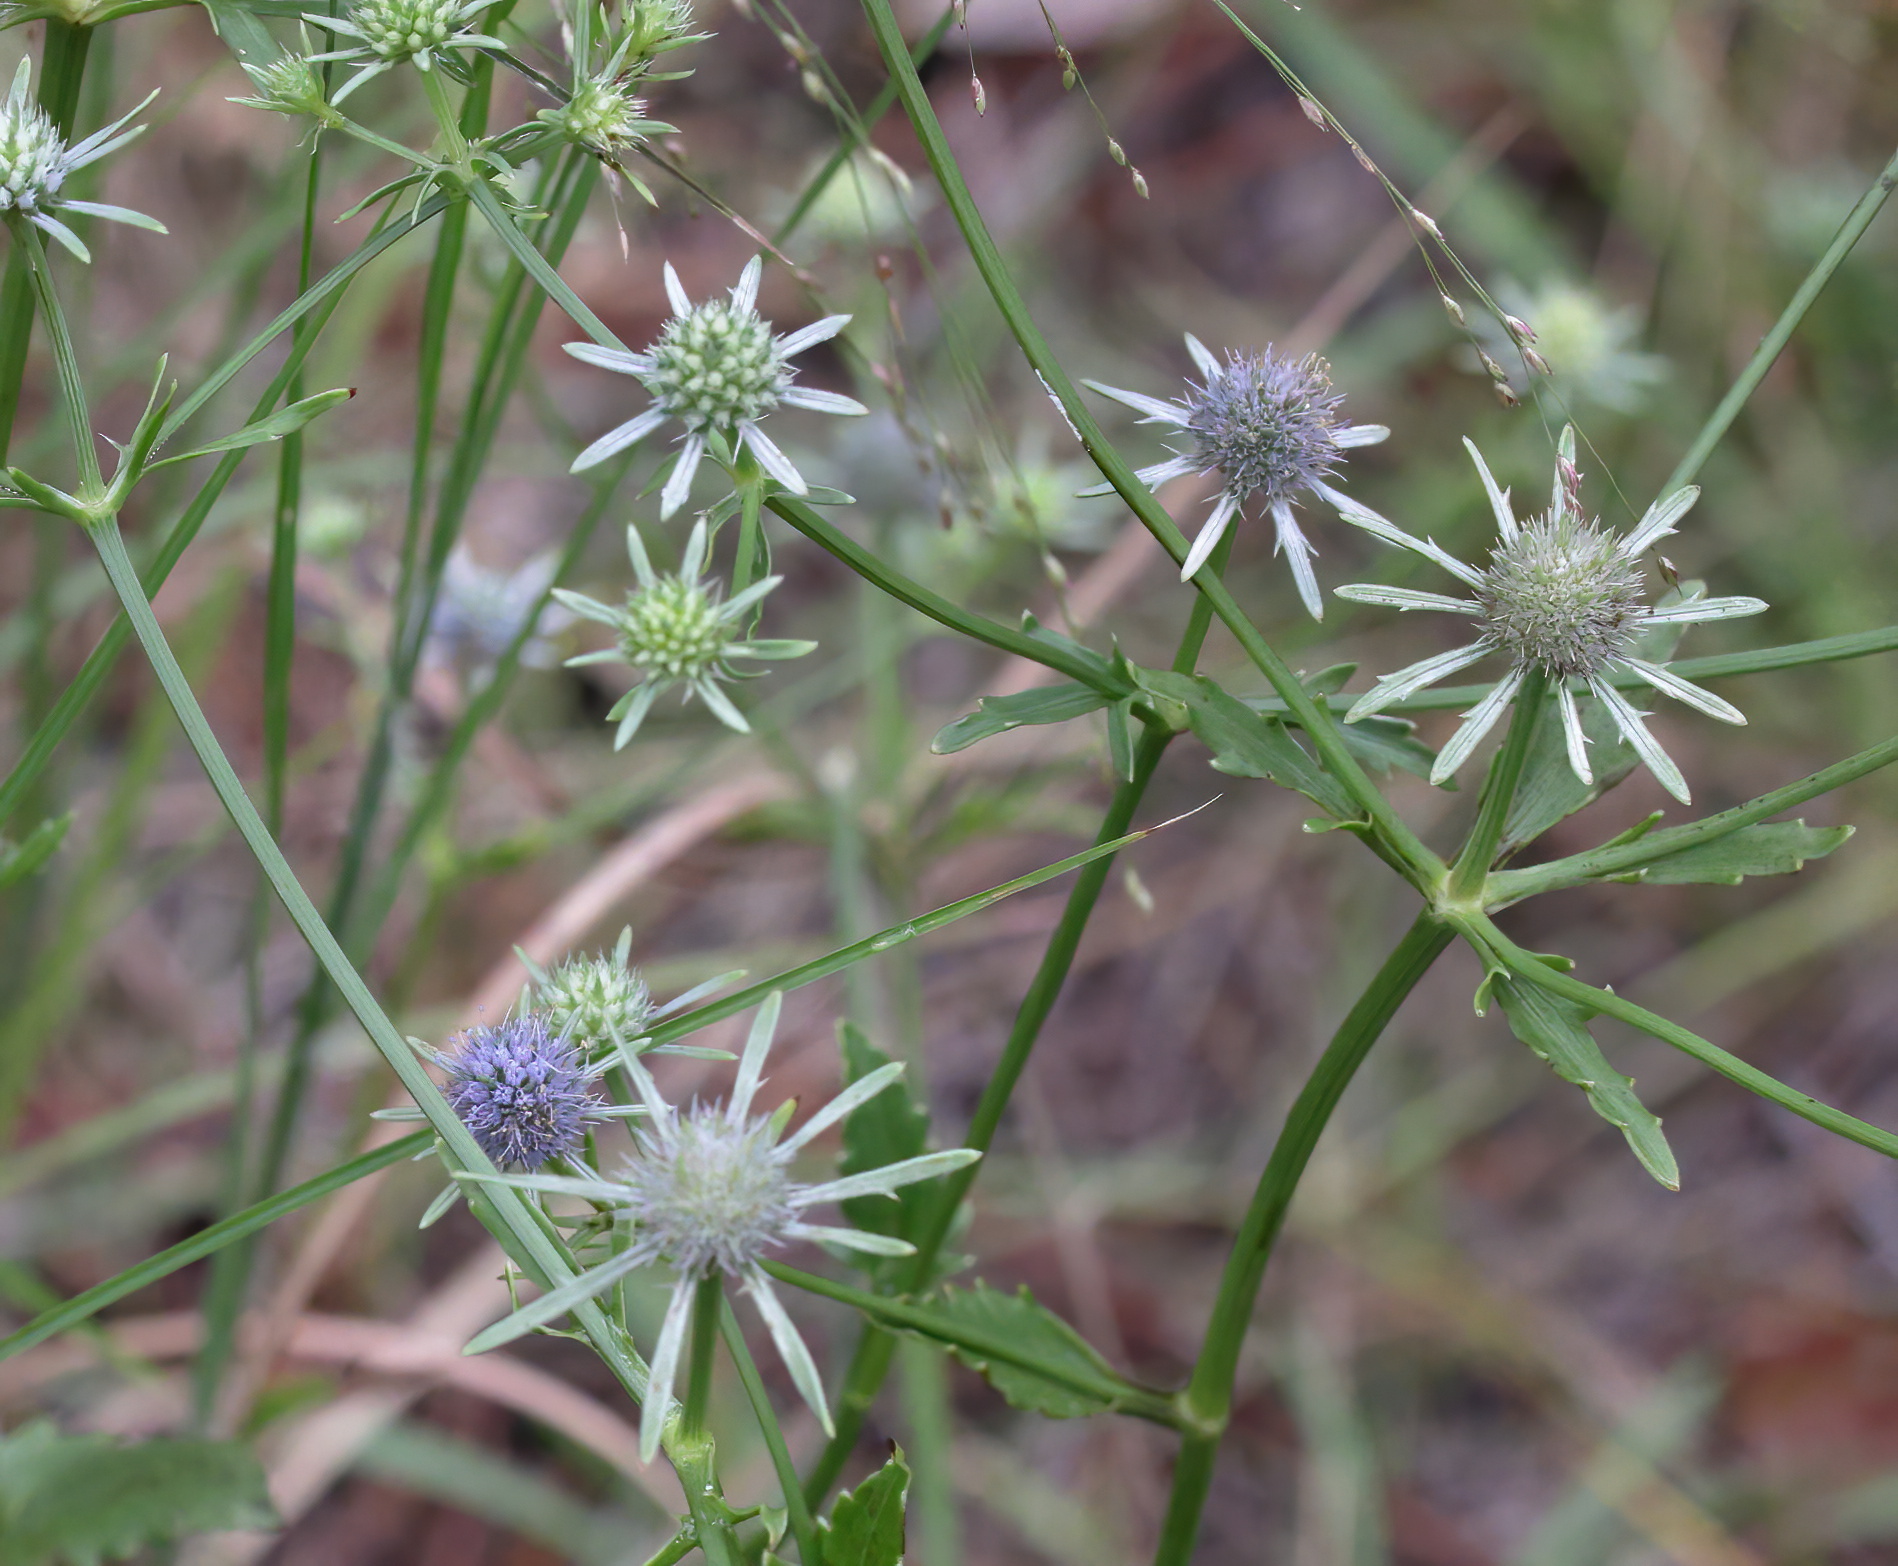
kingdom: Plantae
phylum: Tracheophyta
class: Magnoliopsida
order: Apiales
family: Apiaceae
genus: Eryngium
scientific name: Eryngium integrifolium
